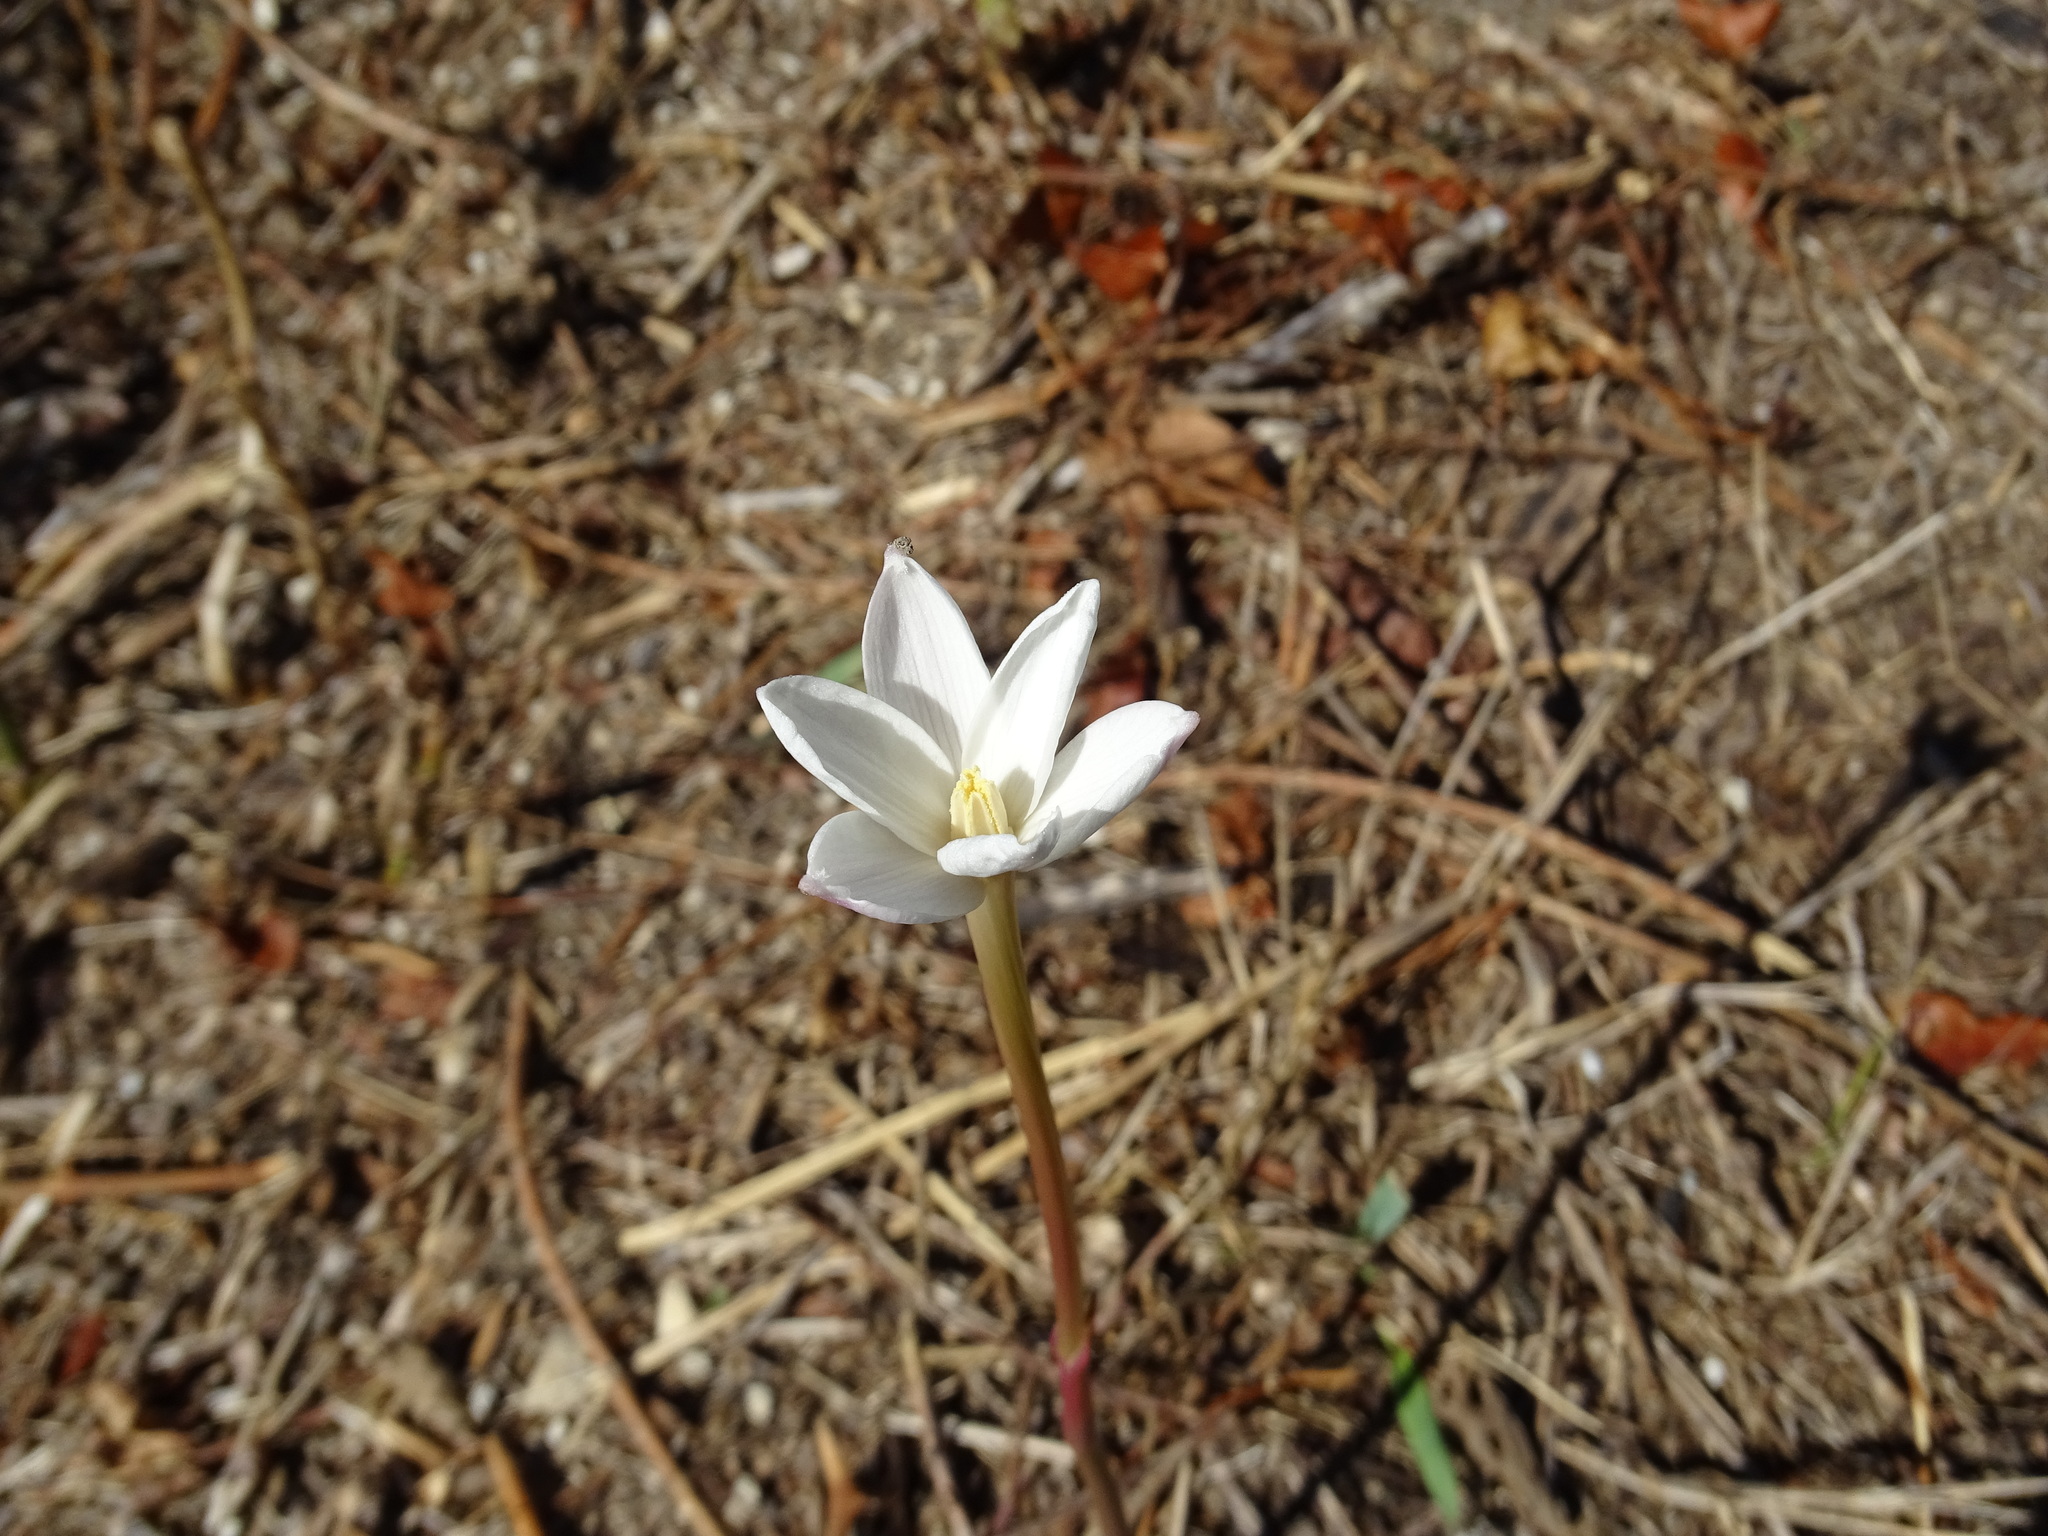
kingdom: Plantae
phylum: Tracheophyta
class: Liliopsida
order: Asparagales
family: Amaryllidaceae
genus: Zephyranthes
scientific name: Zephyranthes chlorosolen
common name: Evening rain-lily
